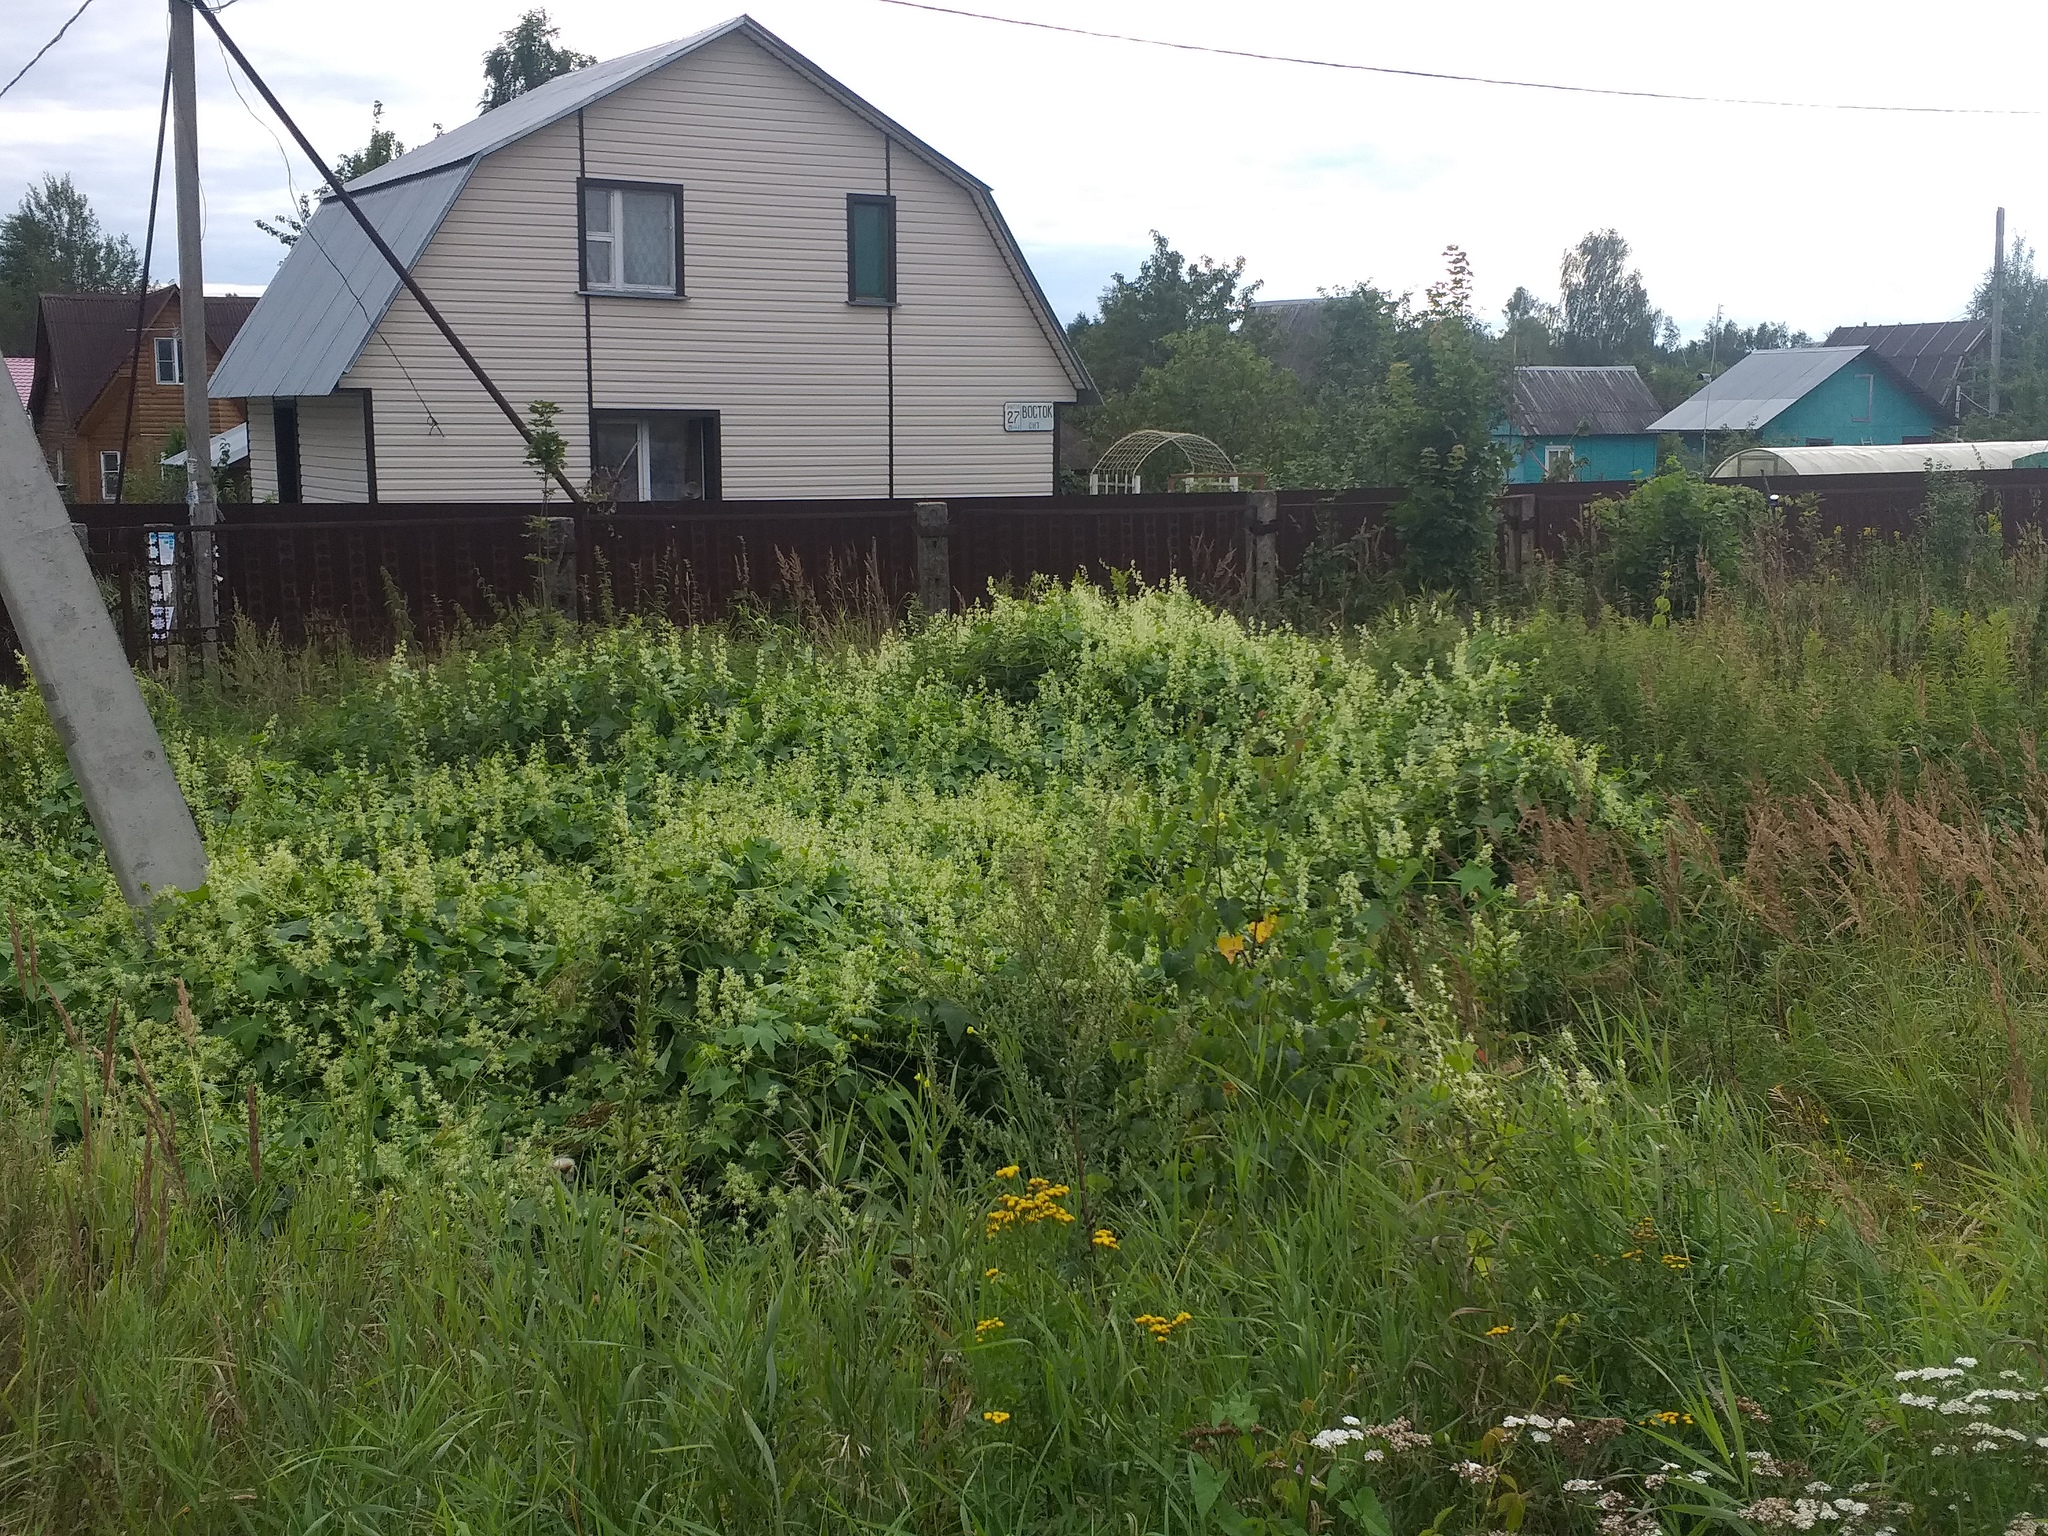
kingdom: Plantae
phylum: Tracheophyta
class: Magnoliopsida
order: Cucurbitales
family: Cucurbitaceae
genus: Echinocystis
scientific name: Echinocystis lobata
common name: Wild cucumber
